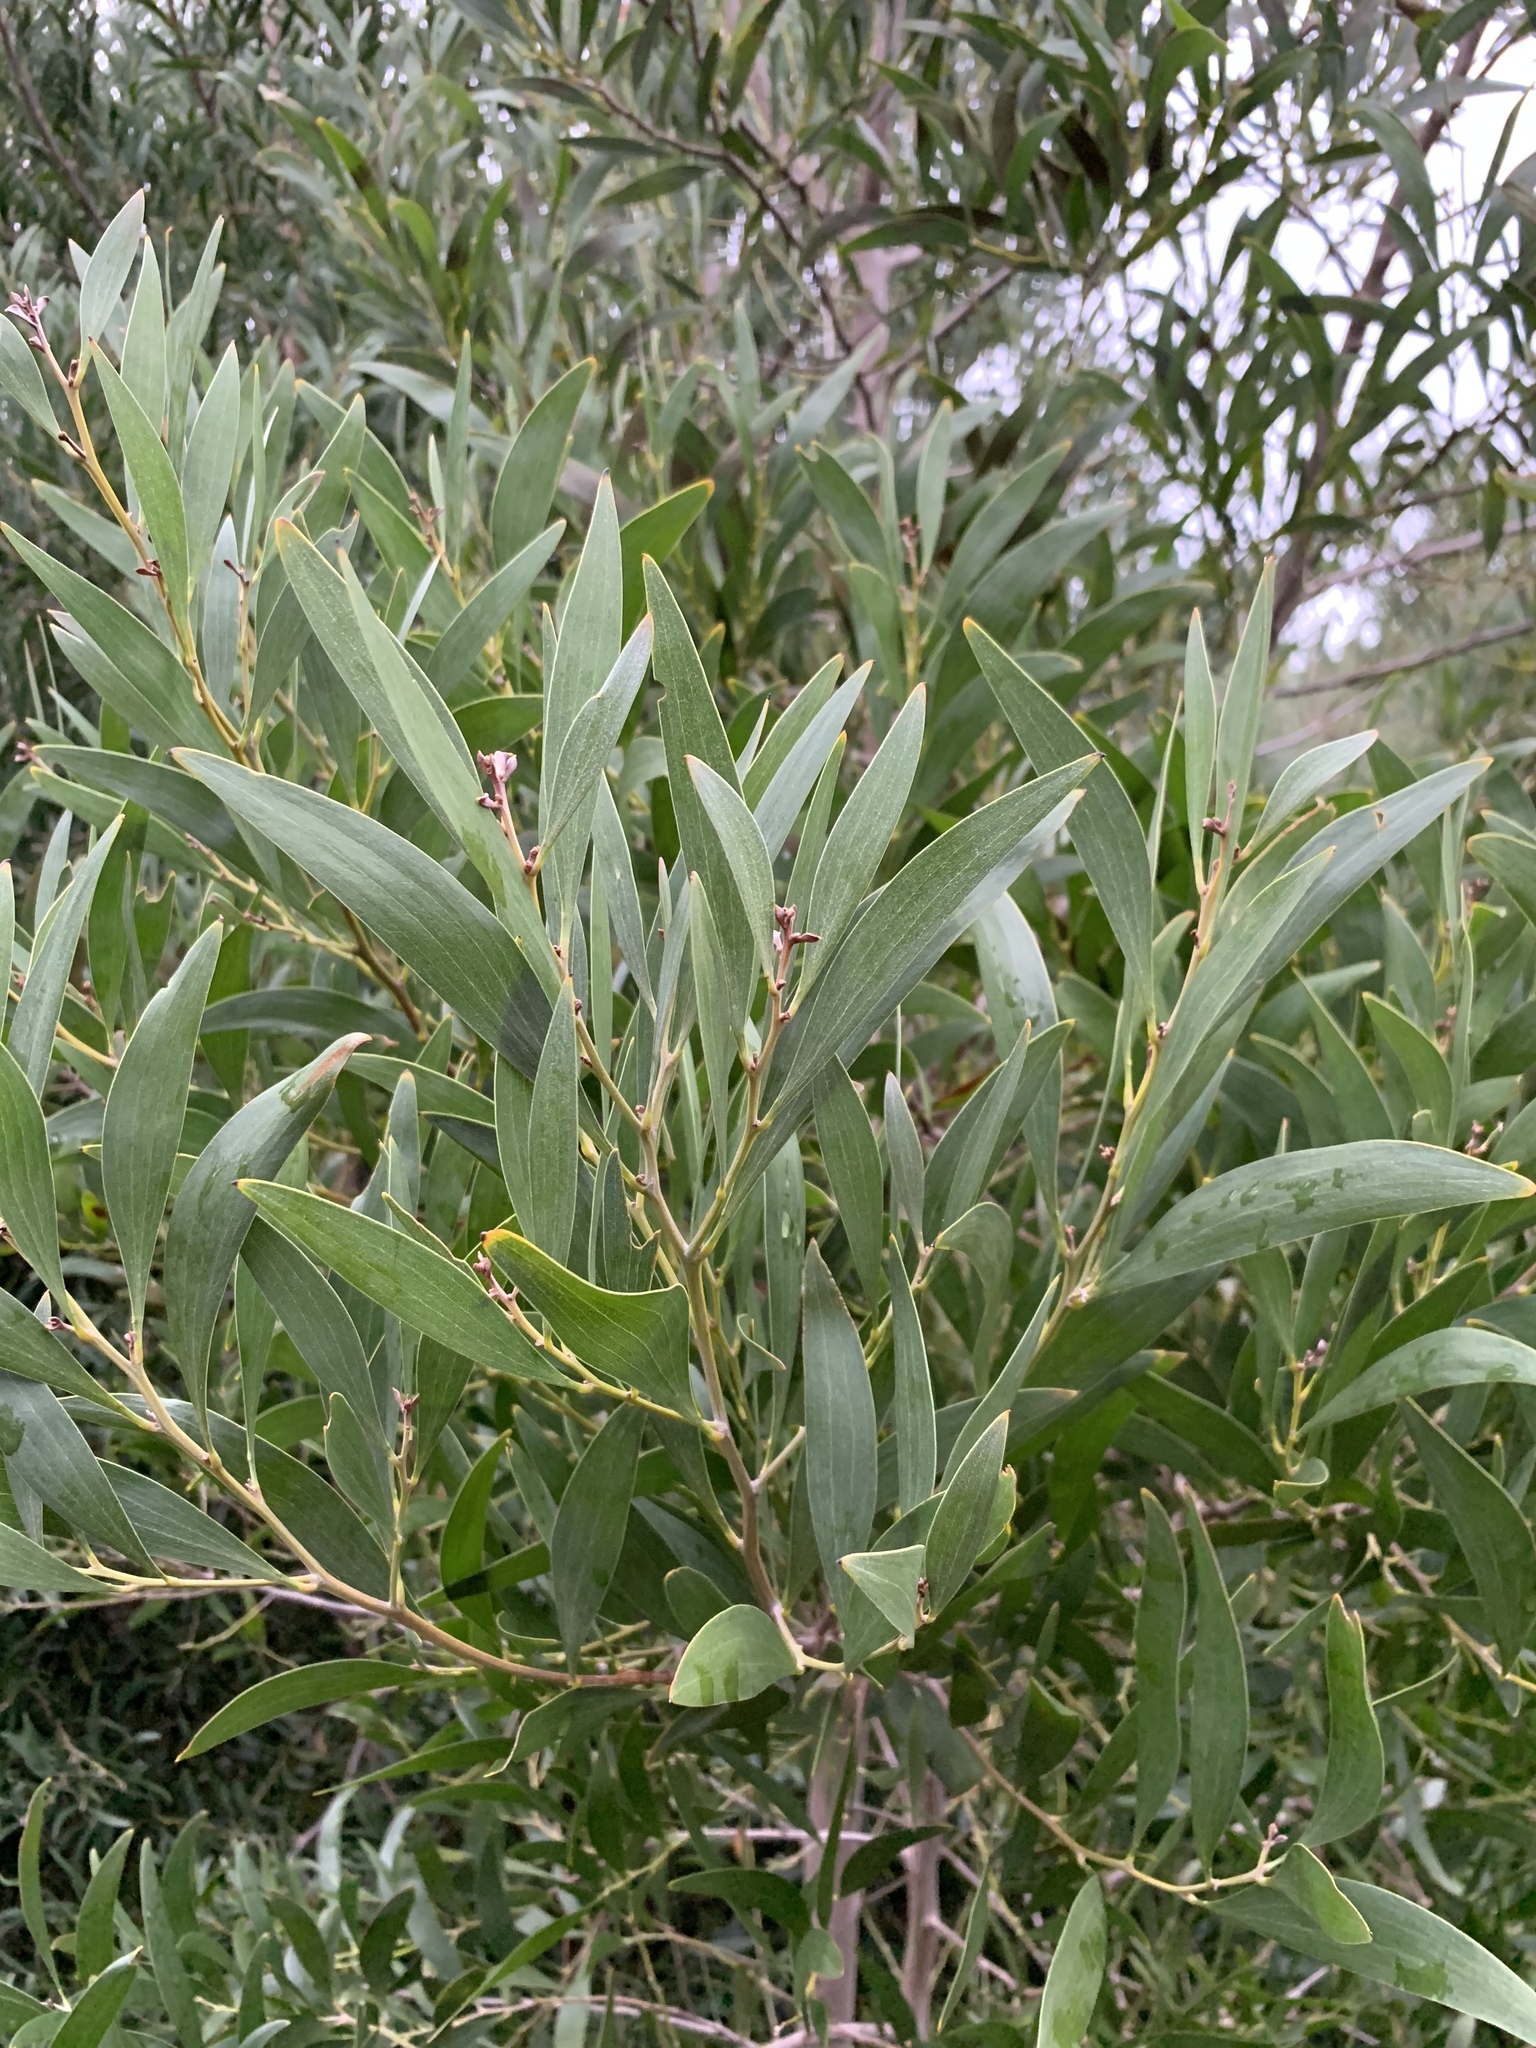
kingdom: Plantae
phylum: Tracheophyta
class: Magnoliopsida
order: Fabales
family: Fabaceae
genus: Acacia
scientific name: Acacia melanoxylon
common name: Blackwood
